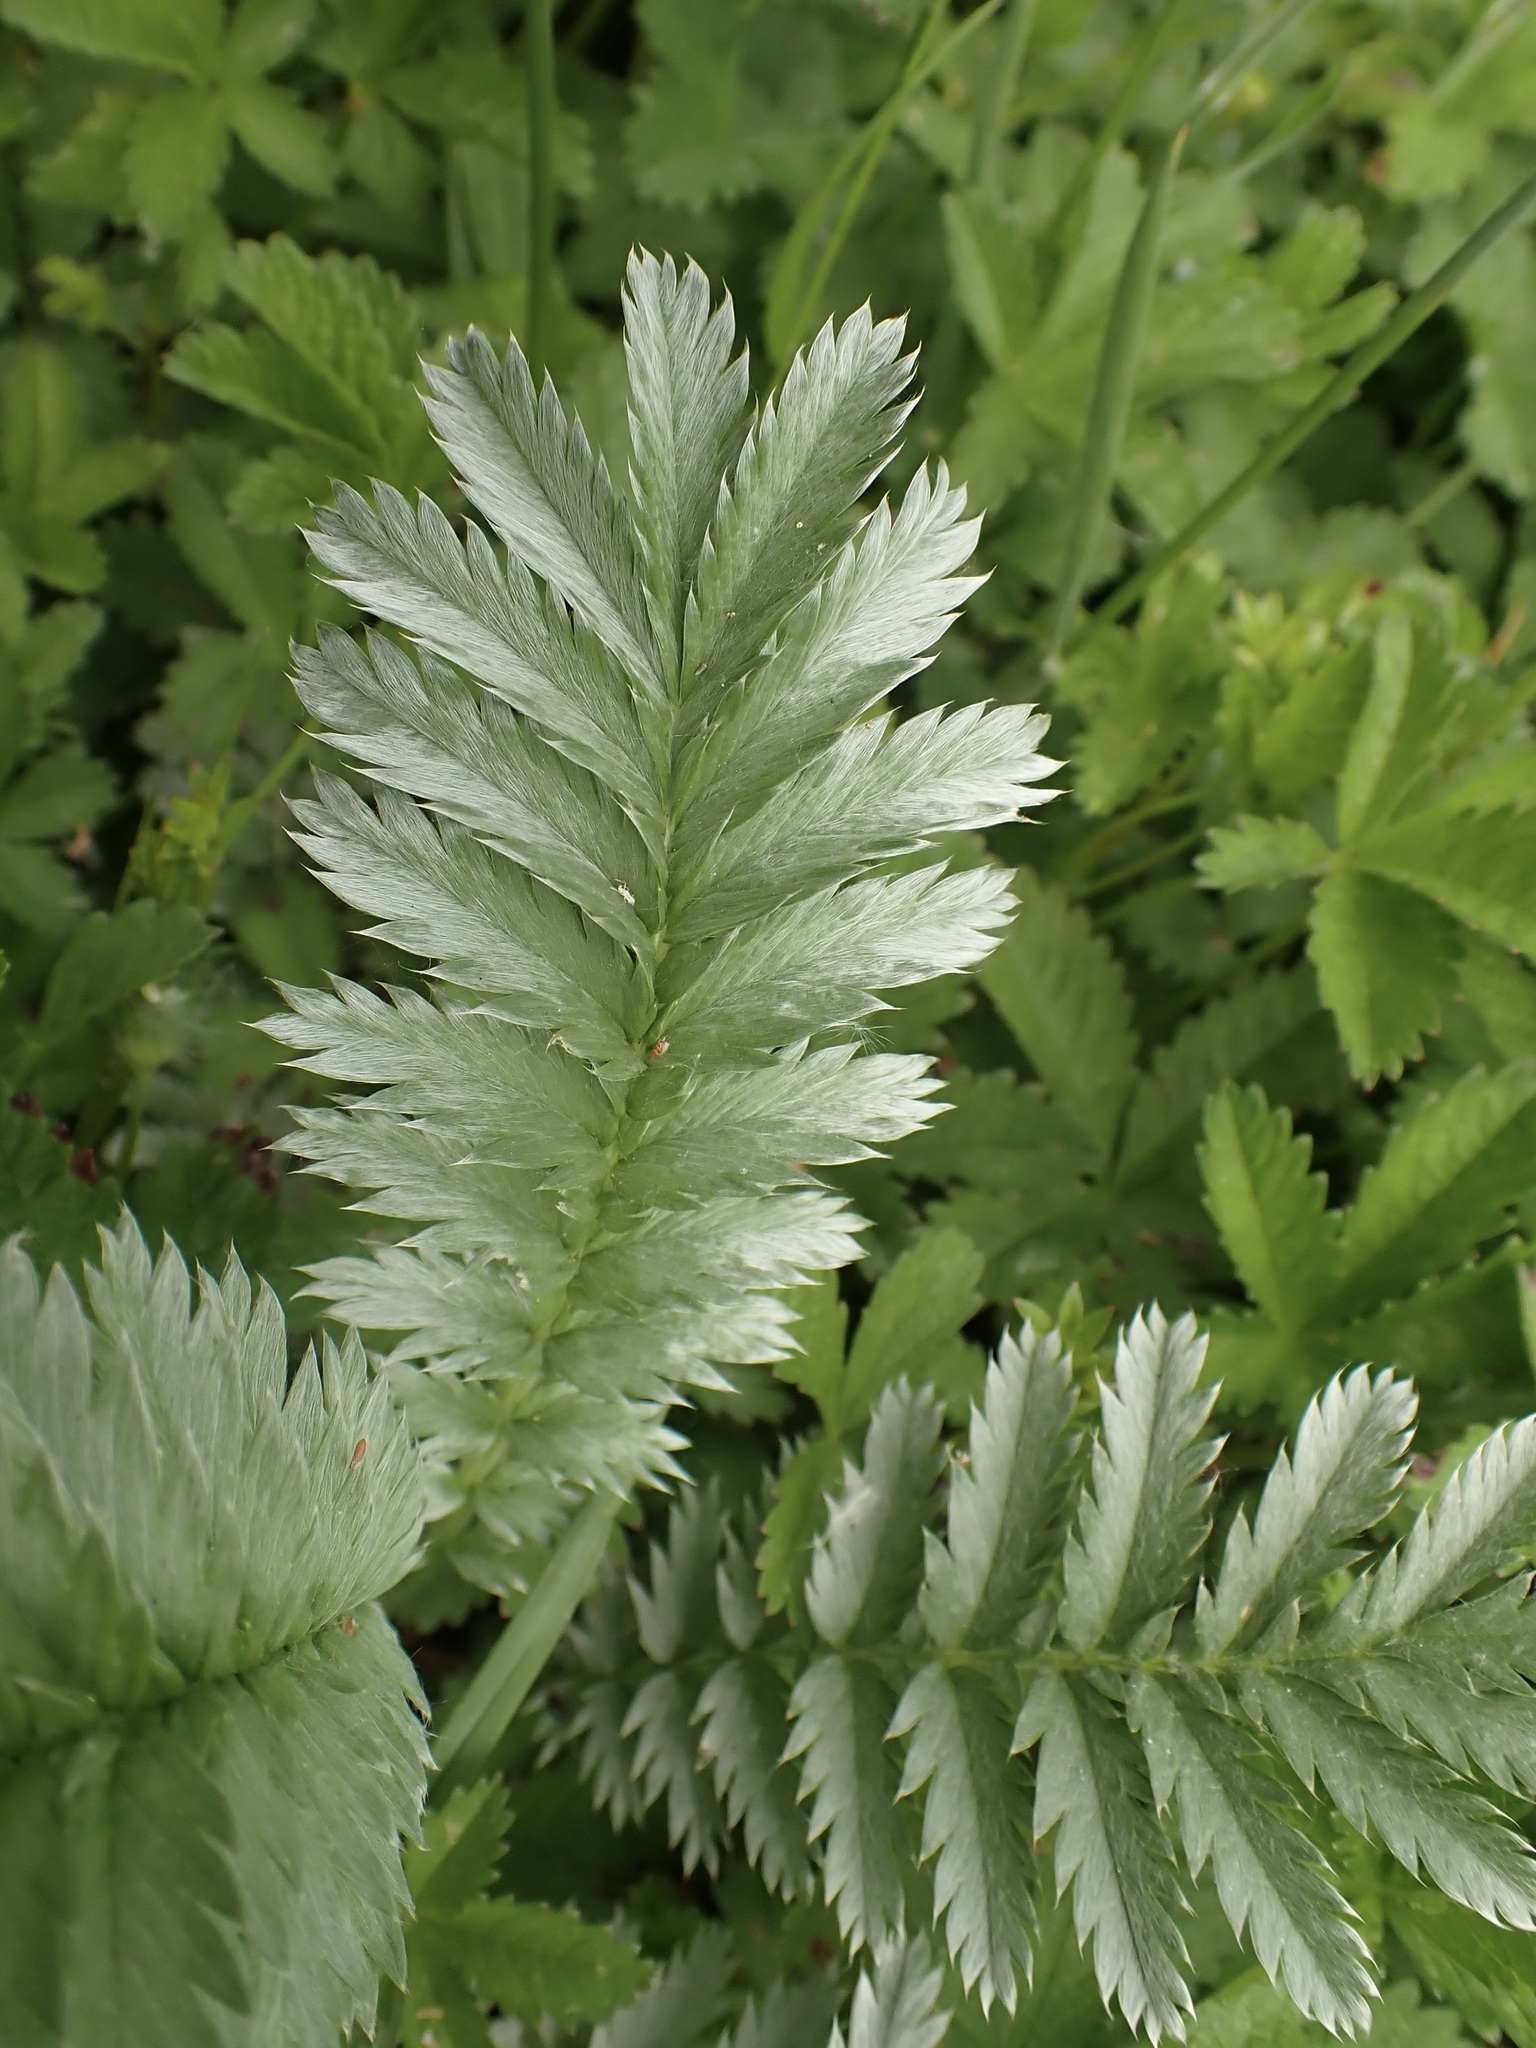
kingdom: Plantae
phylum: Tracheophyta
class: Magnoliopsida
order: Rosales
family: Rosaceae
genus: Argentina
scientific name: Argentina anserina
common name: Common silverweed
